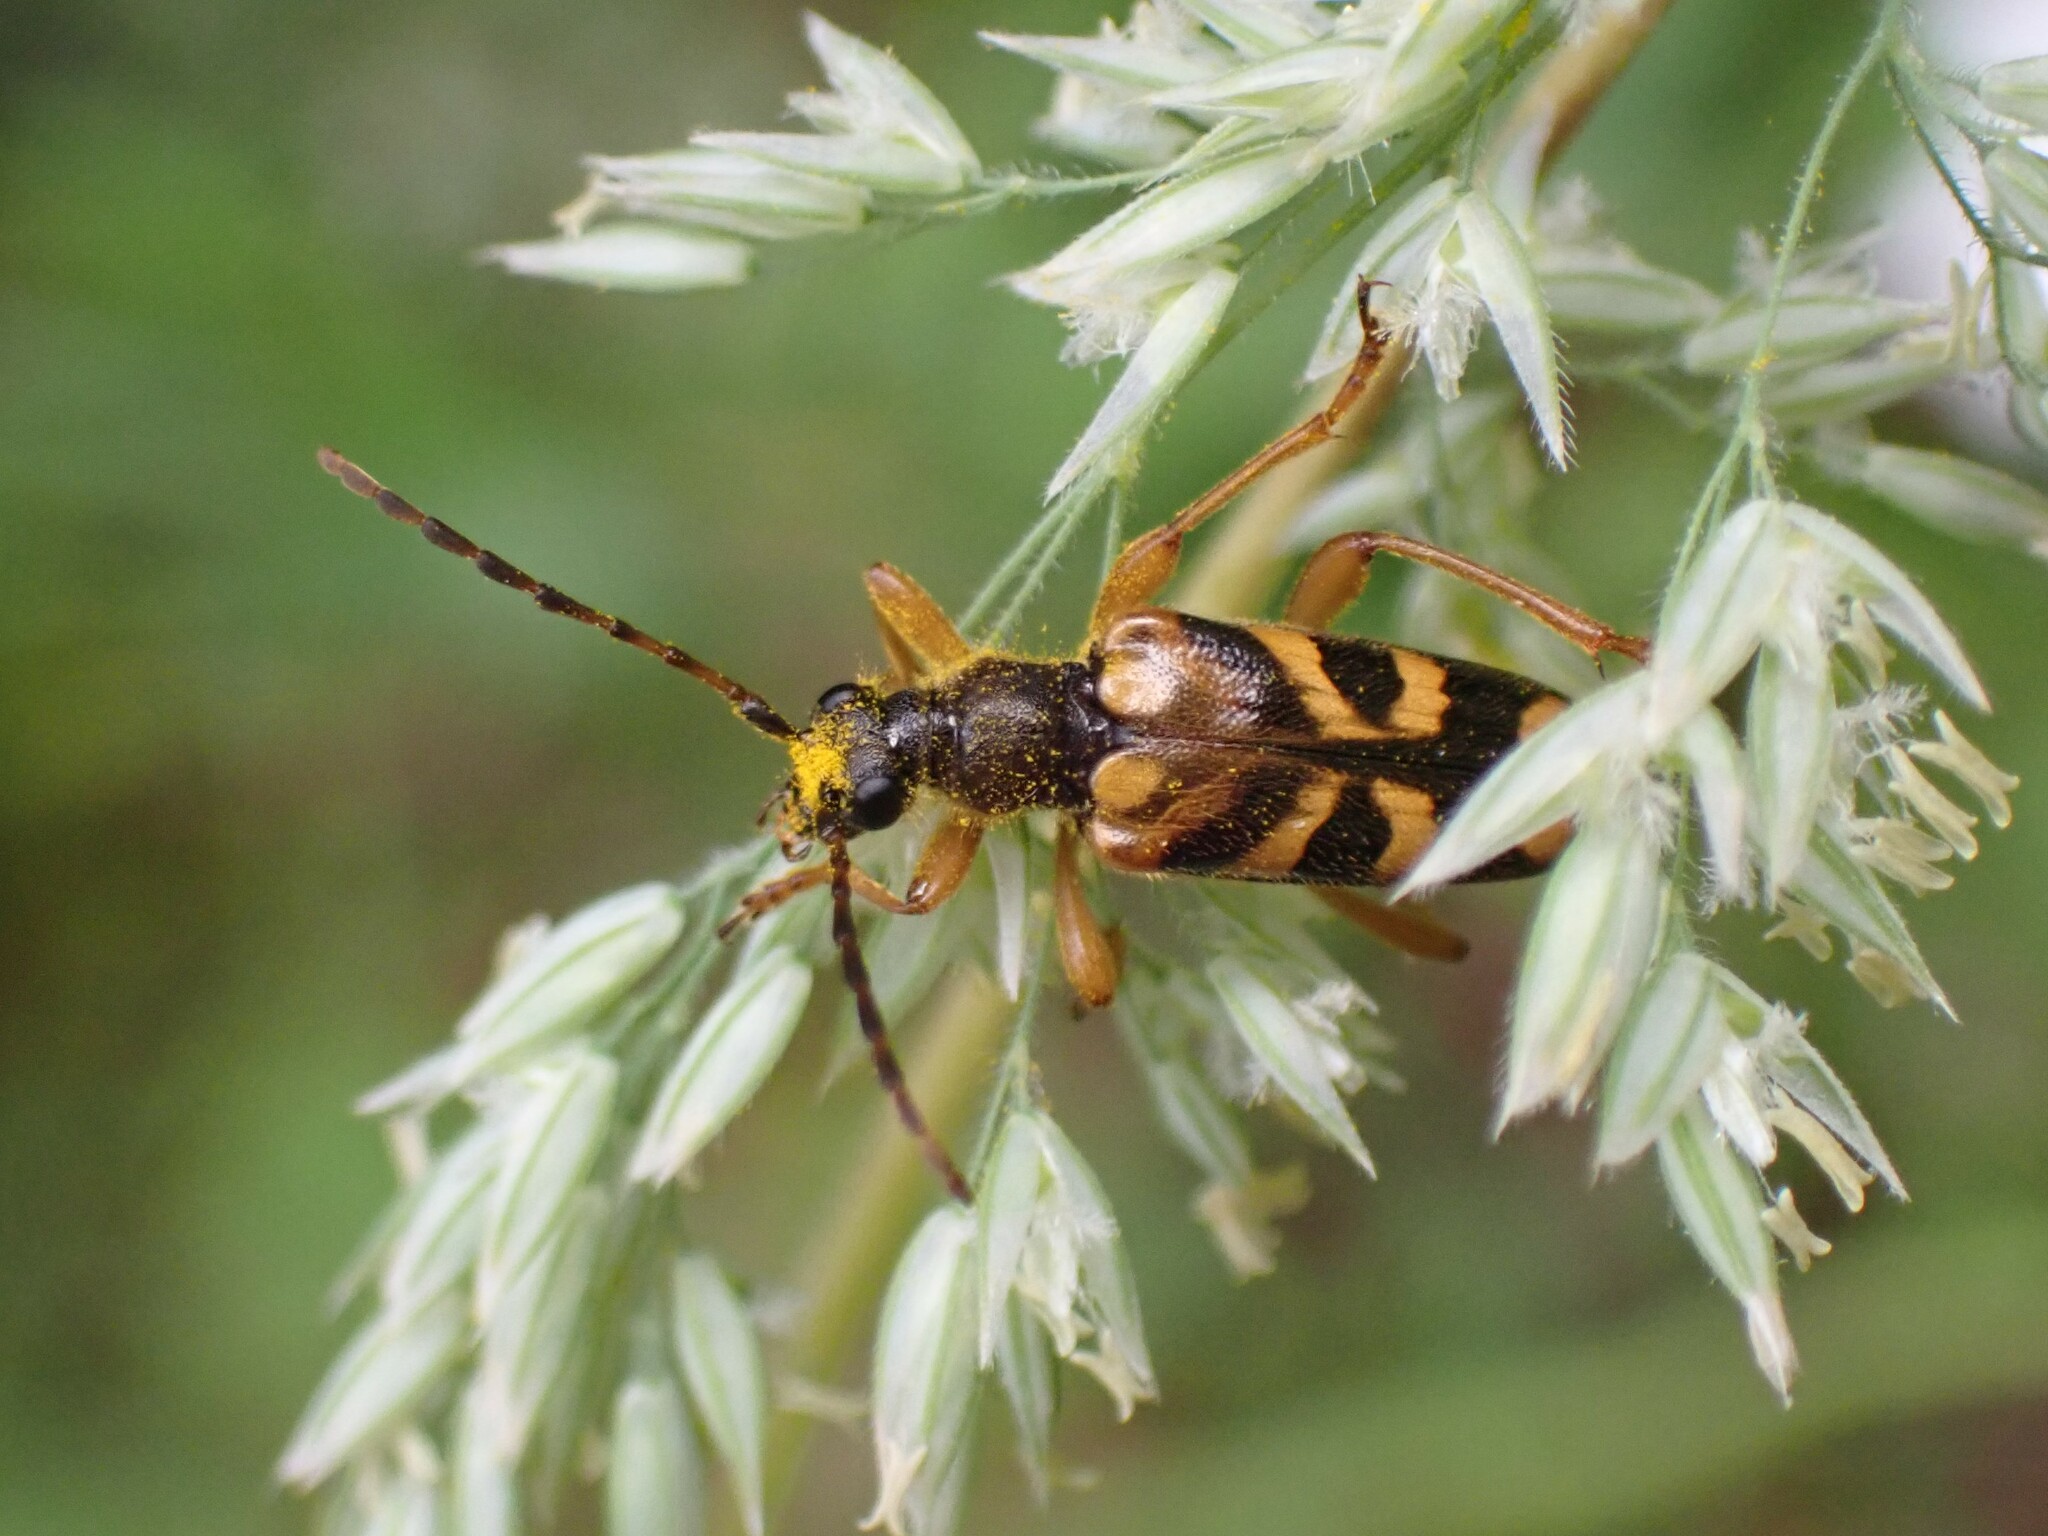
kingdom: Animalia
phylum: Arthropoda
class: Insecta
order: Coleoptera
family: Cerambycidae
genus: Xestoleptura
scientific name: Xestoleptura crassipes
